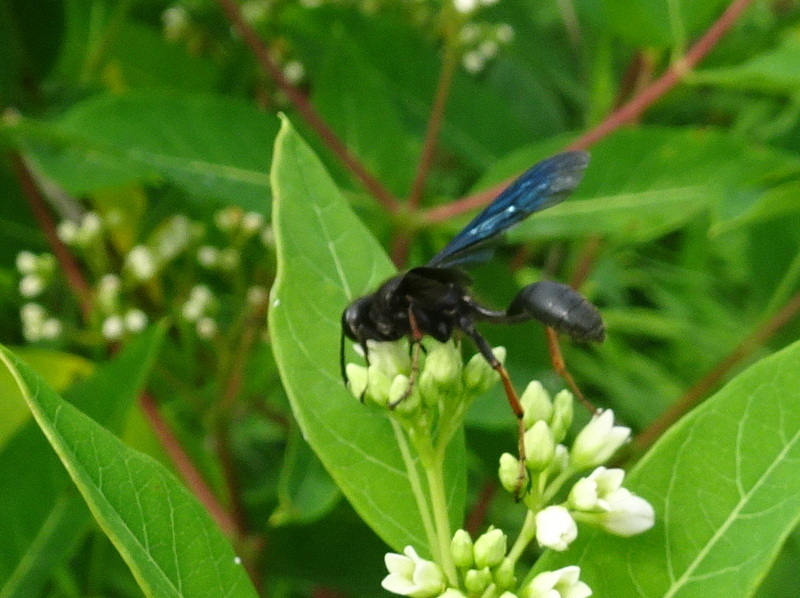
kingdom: Animalia
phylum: Arthropoda
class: Insecta
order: Hymenoptera
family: Sphecidae
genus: Isodontia
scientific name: Isodontia auripes
